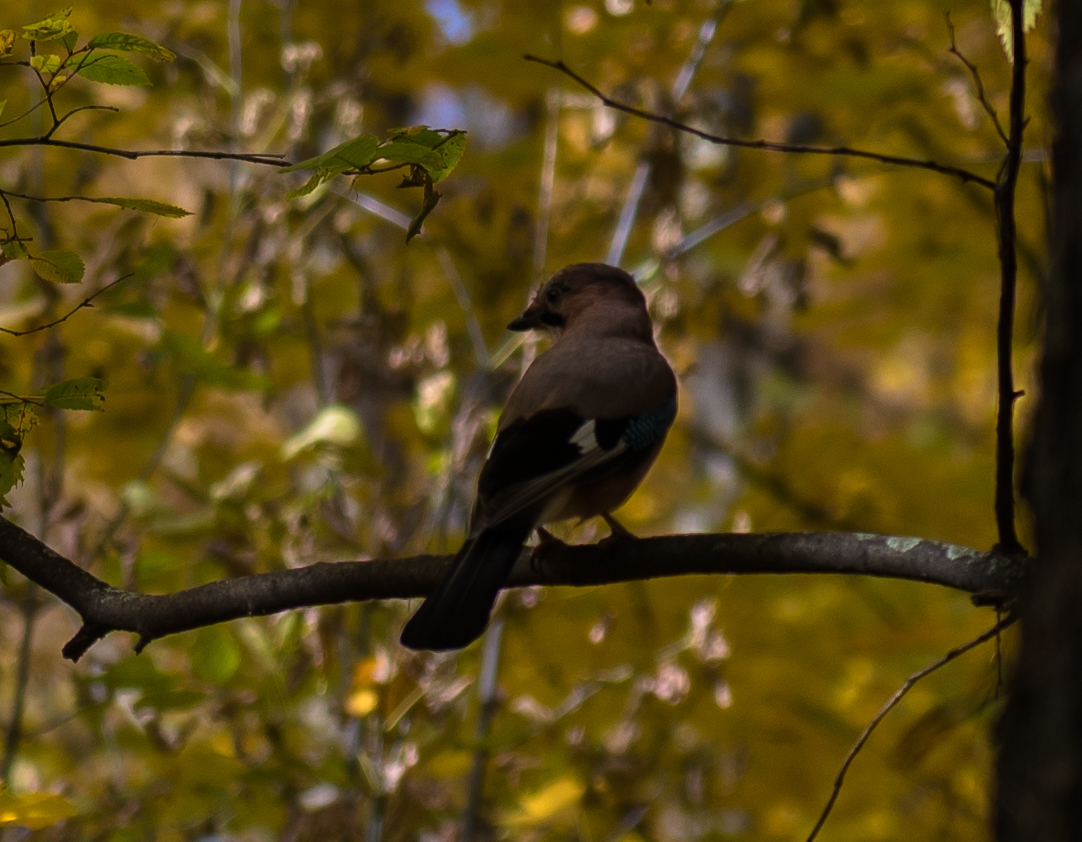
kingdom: Animalia
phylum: Chordata
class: Aves
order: Passeriformes
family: Corvidae
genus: Garrulus
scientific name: Garrulus glandarius
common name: Eurasian jay
